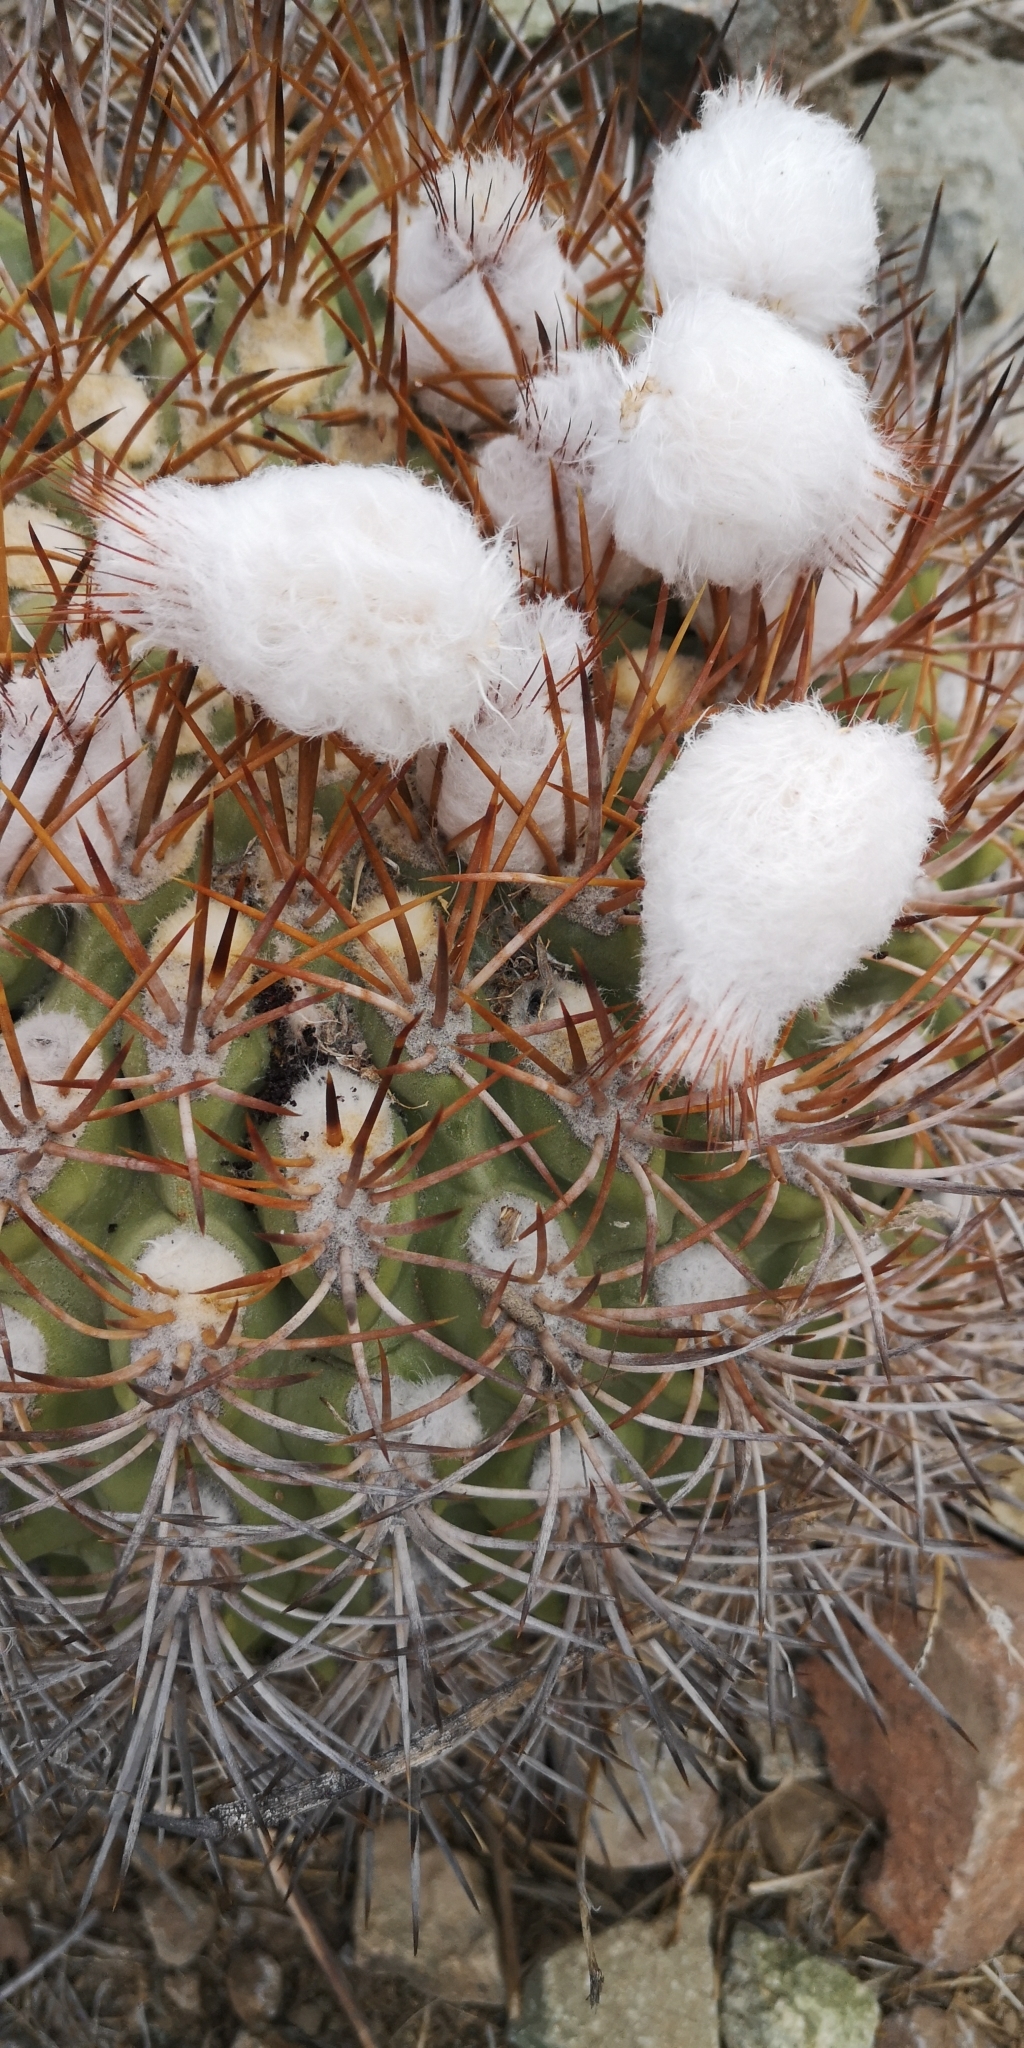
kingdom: Plantae
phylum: Tracheophyta
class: Magnoliopsida
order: Caryophyllales
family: Cactaceae
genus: Eriosyce
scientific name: Eriosyce aurata
